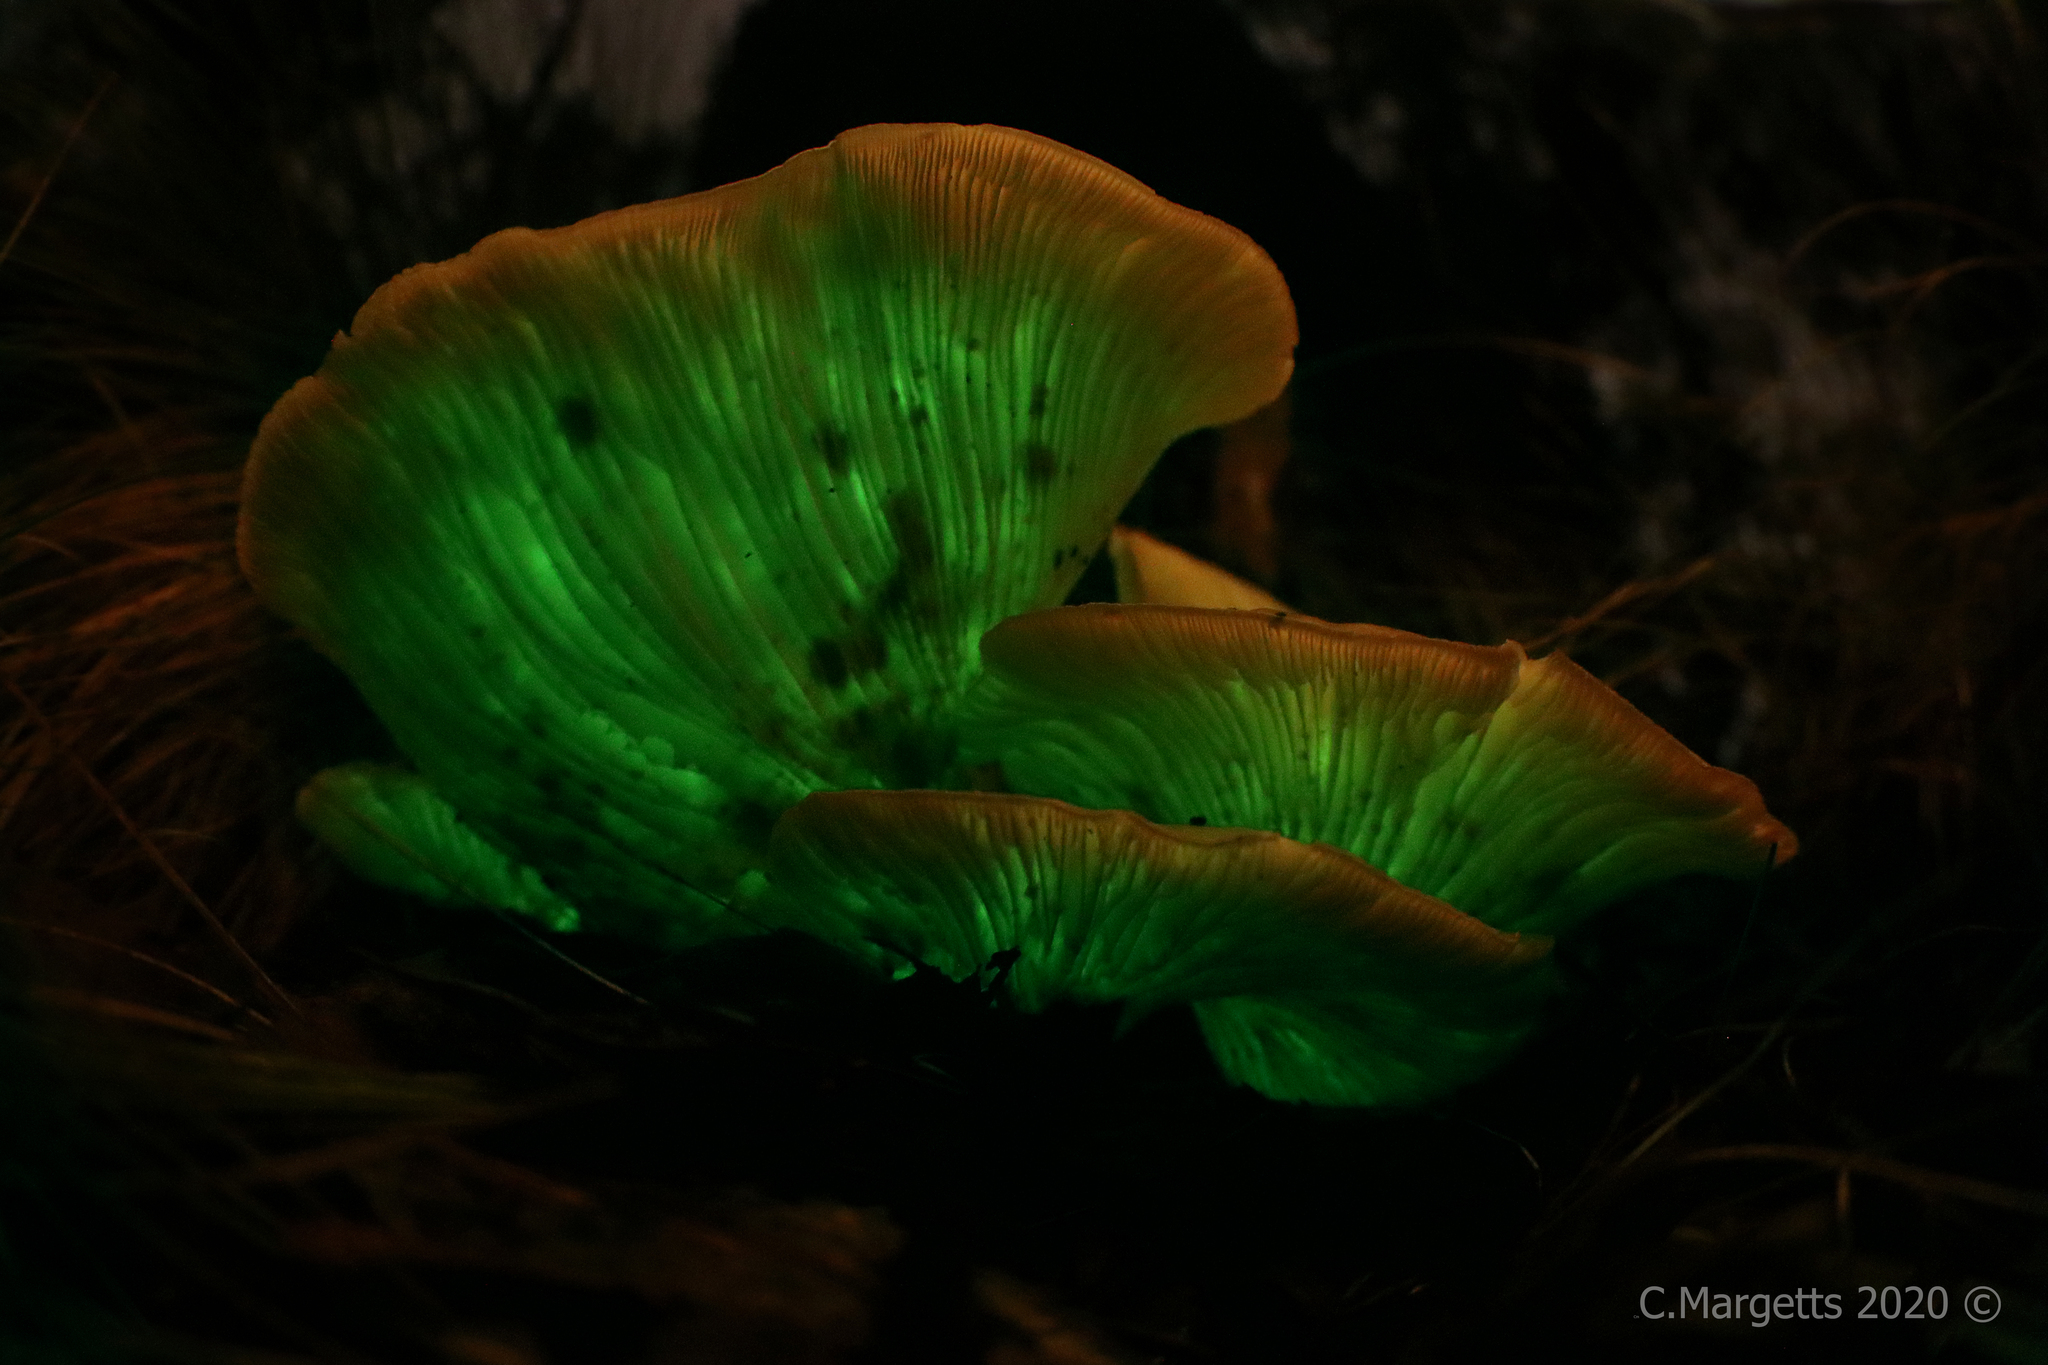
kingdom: Fungi
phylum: Basidiomycota
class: Agaricomycetes
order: Agaricales
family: Omphalotaceae
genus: Omphalotus
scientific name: Omphalotus nidiformis
